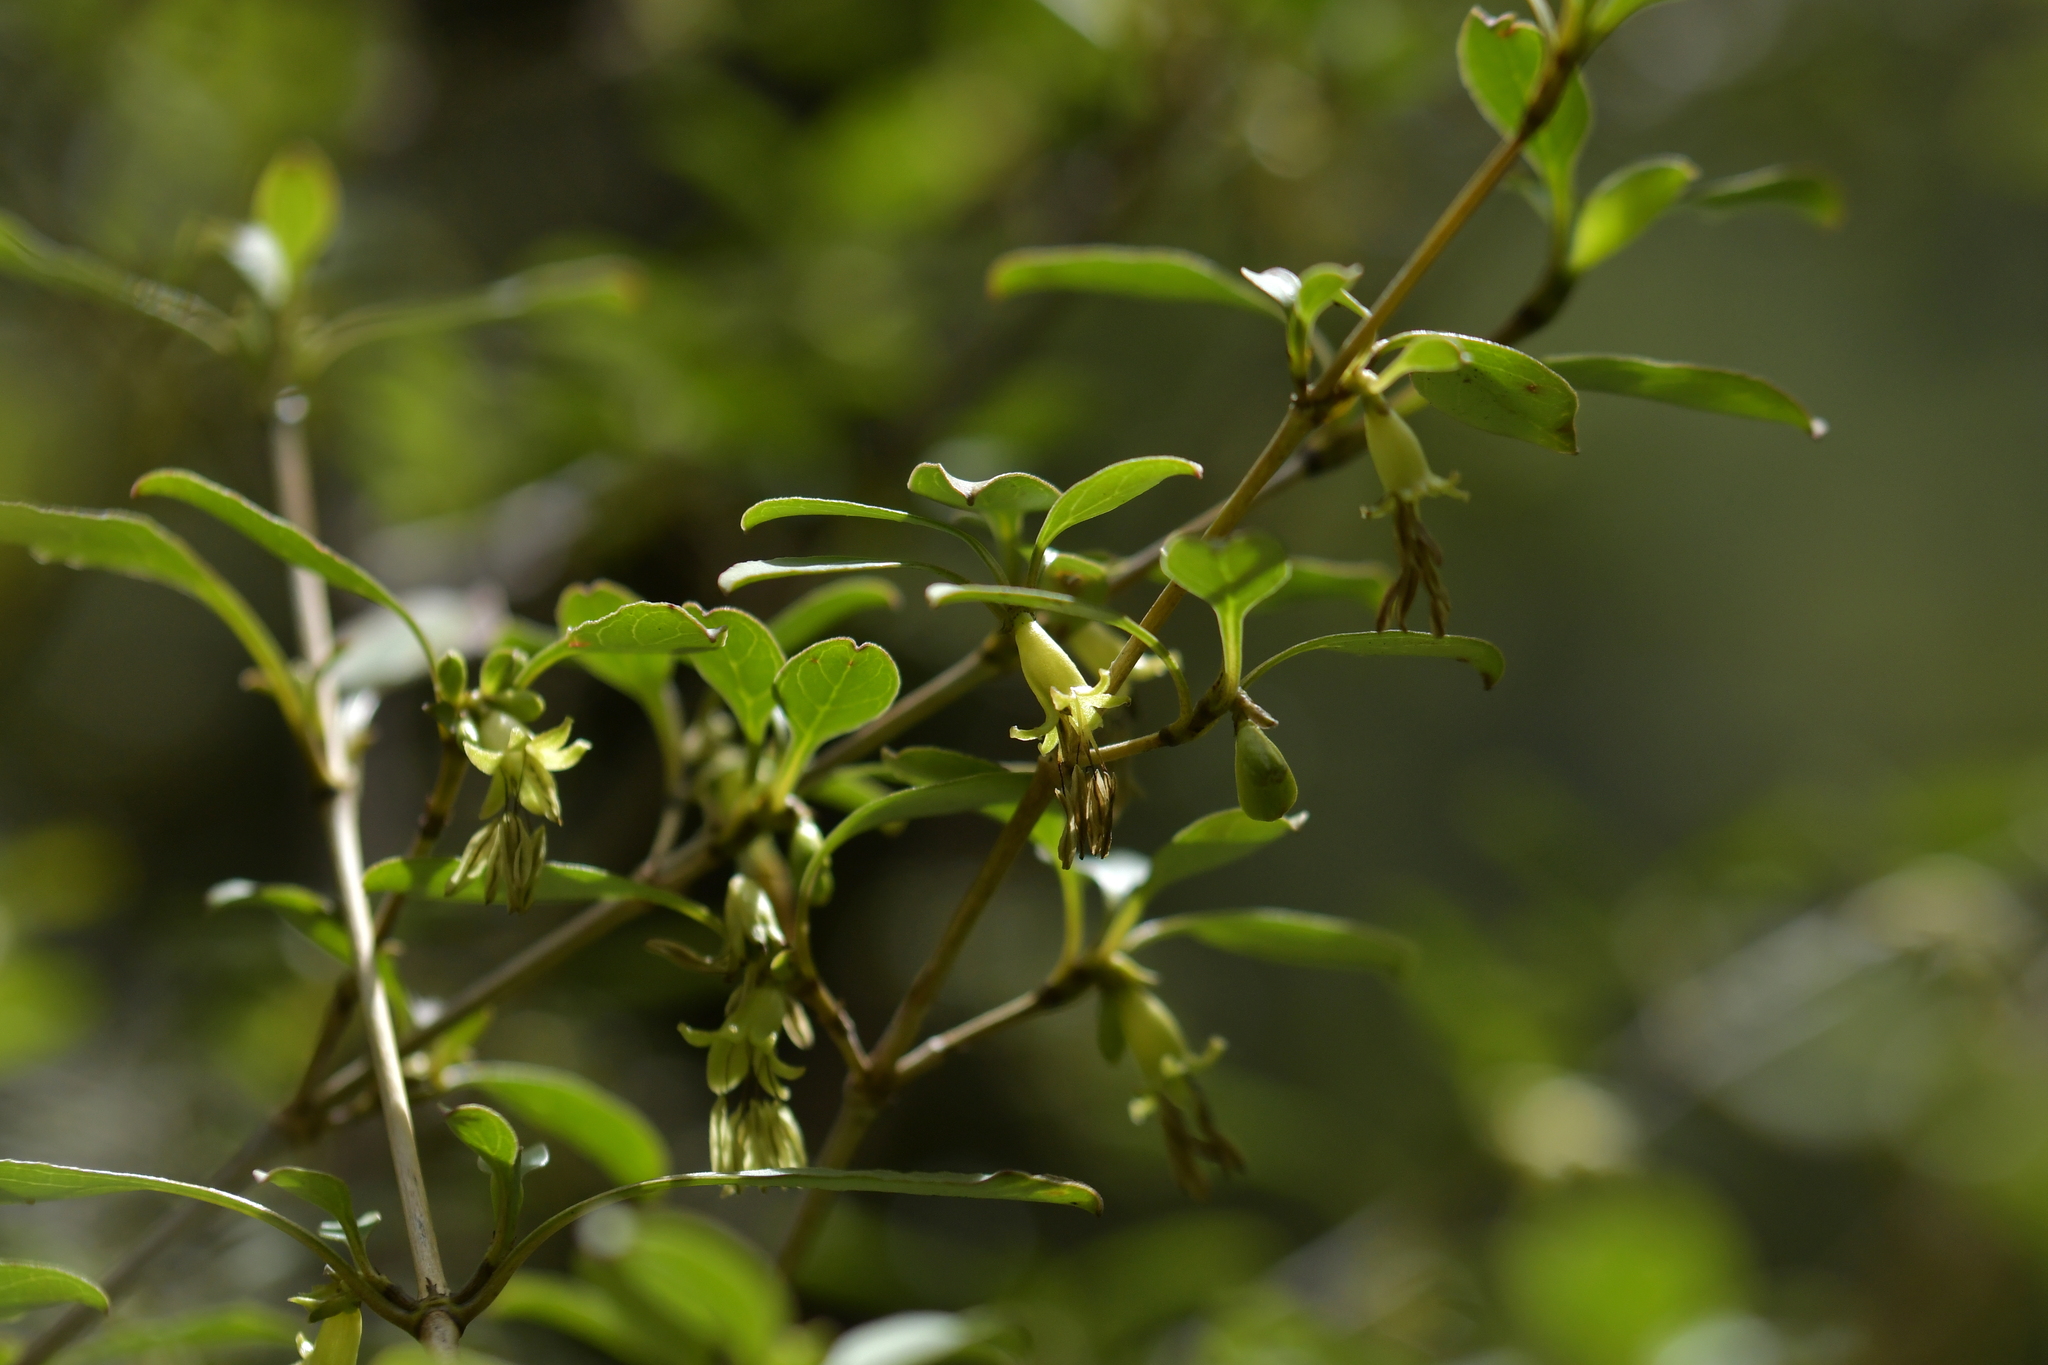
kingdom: Plantae
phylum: Tracheophyta
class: Magnoliopsida
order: Gentianales
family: Rubiaceae
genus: Coprosma
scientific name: Coprosma foetidissima
